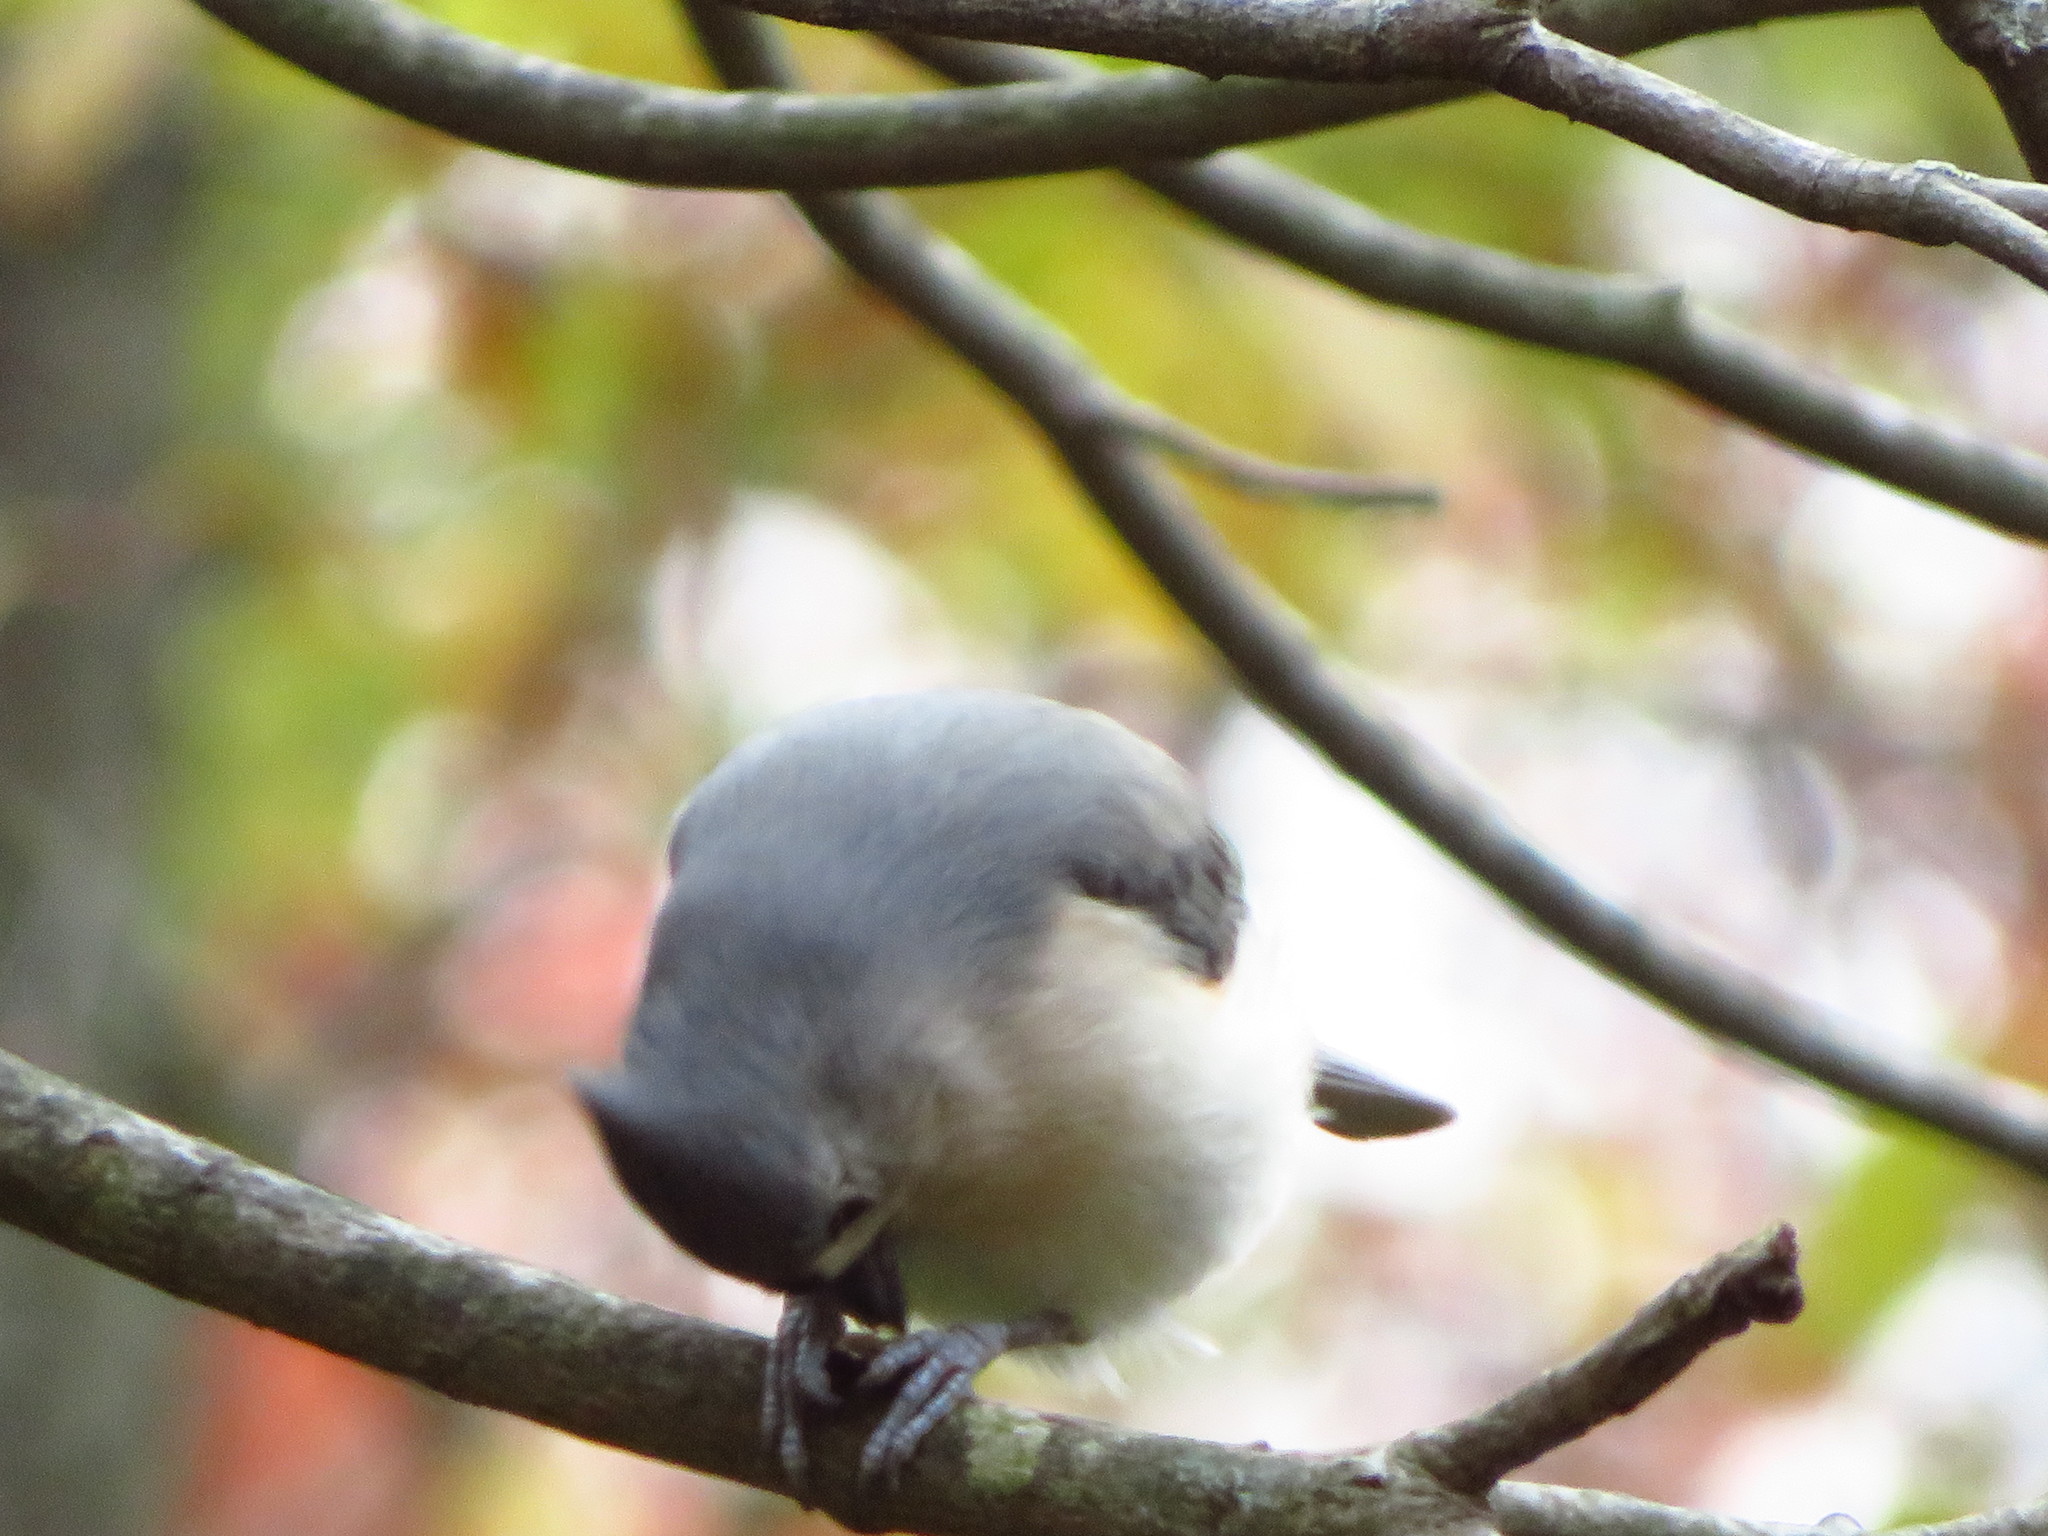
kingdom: Animalia
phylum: Chordata
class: Aves
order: Passeriformes
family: Paridae
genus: Baeolophus
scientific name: Baeolophus bicolor
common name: Tufted titmouse
